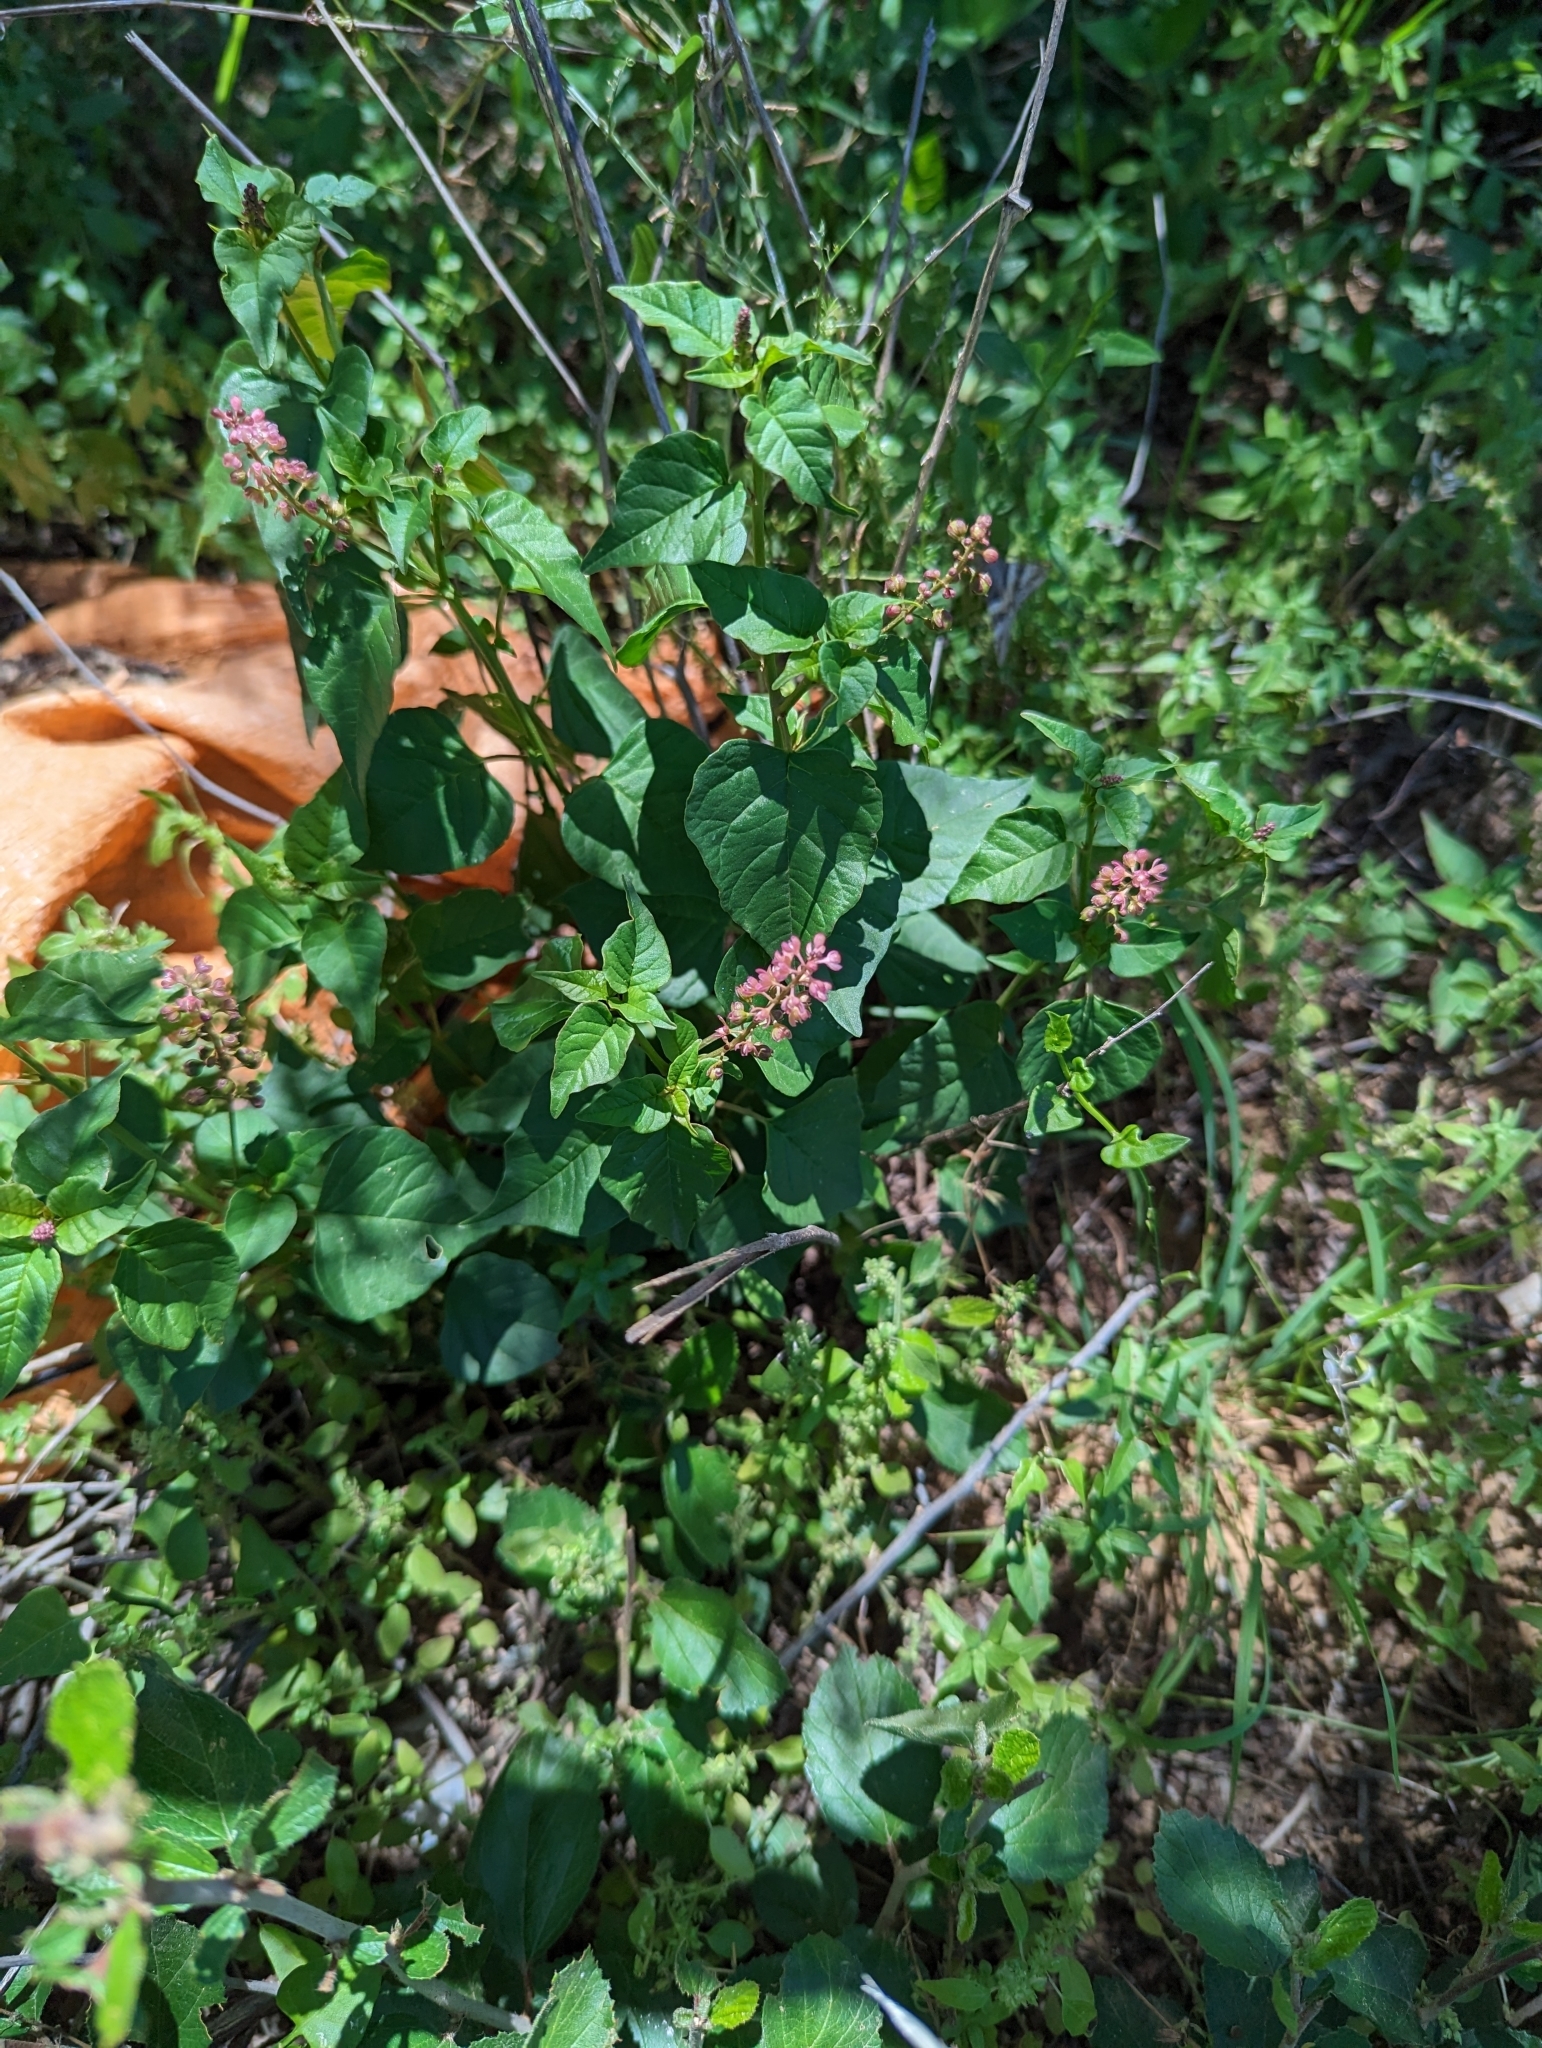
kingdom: Plantae
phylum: Tracheophyta
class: Magnoliopsida
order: Caryophyllales
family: Phytolaccaceae
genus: Rivina
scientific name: Rivina humilis
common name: Rougeplant
